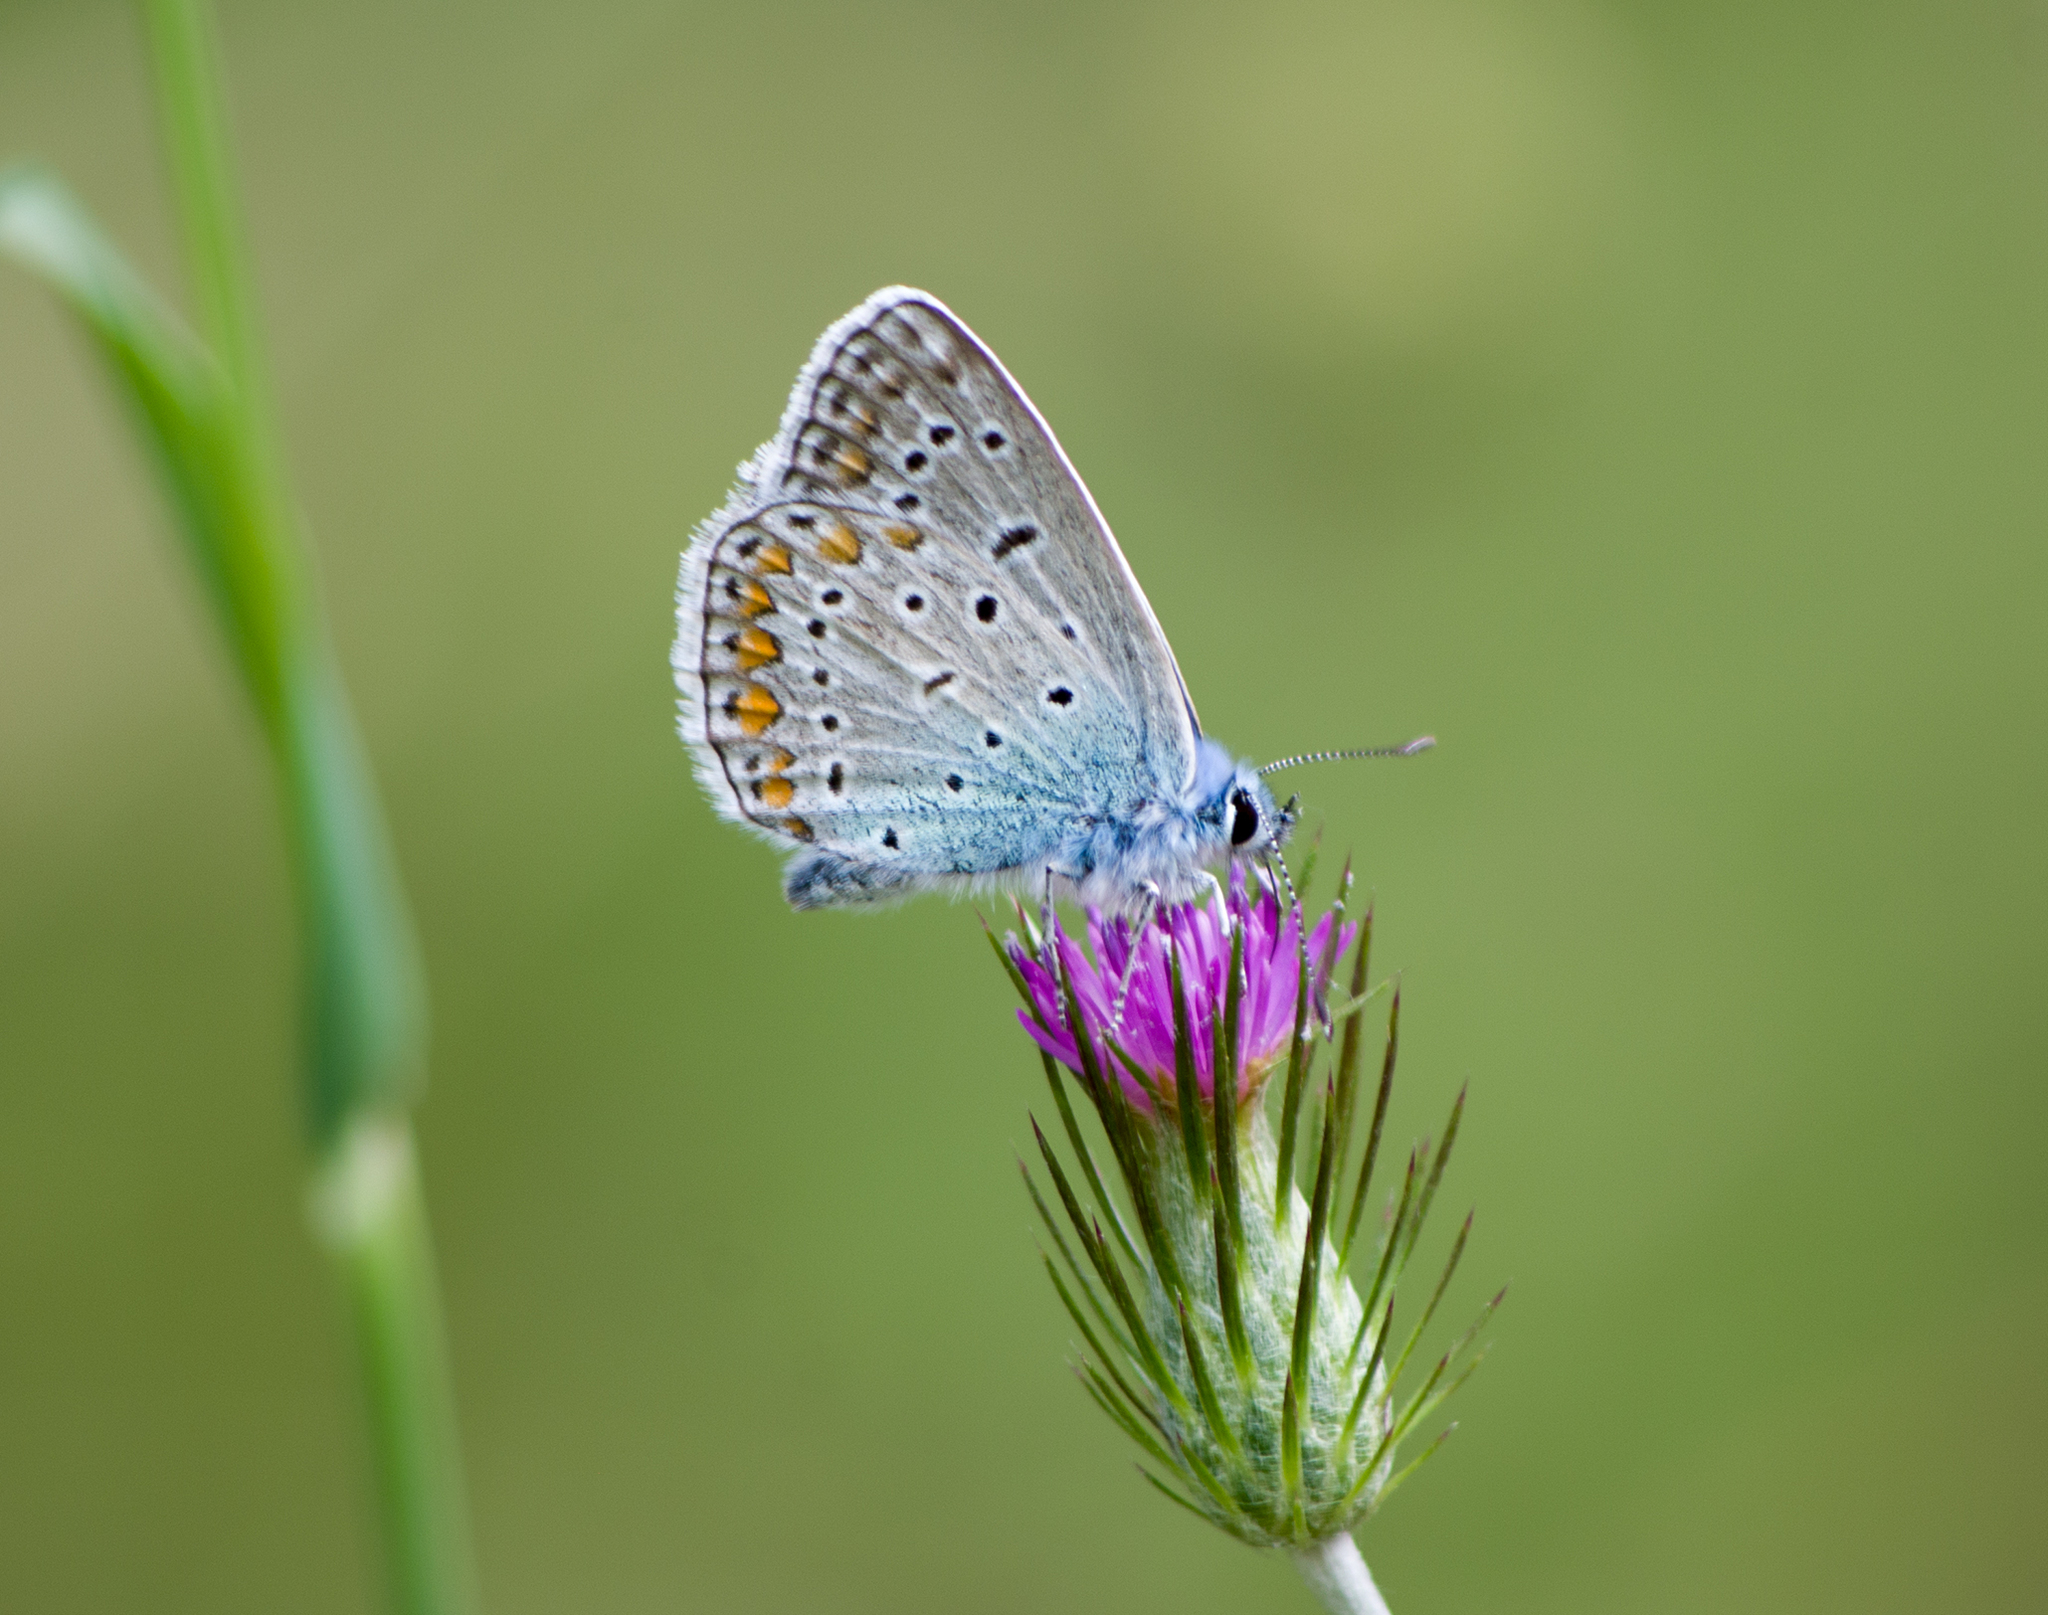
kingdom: Animalia
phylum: Arthropoda
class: Insecta
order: Lepidoptera
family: Lycaenidae
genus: Polyommatus
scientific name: Polyommatus icarus
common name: Common blue
